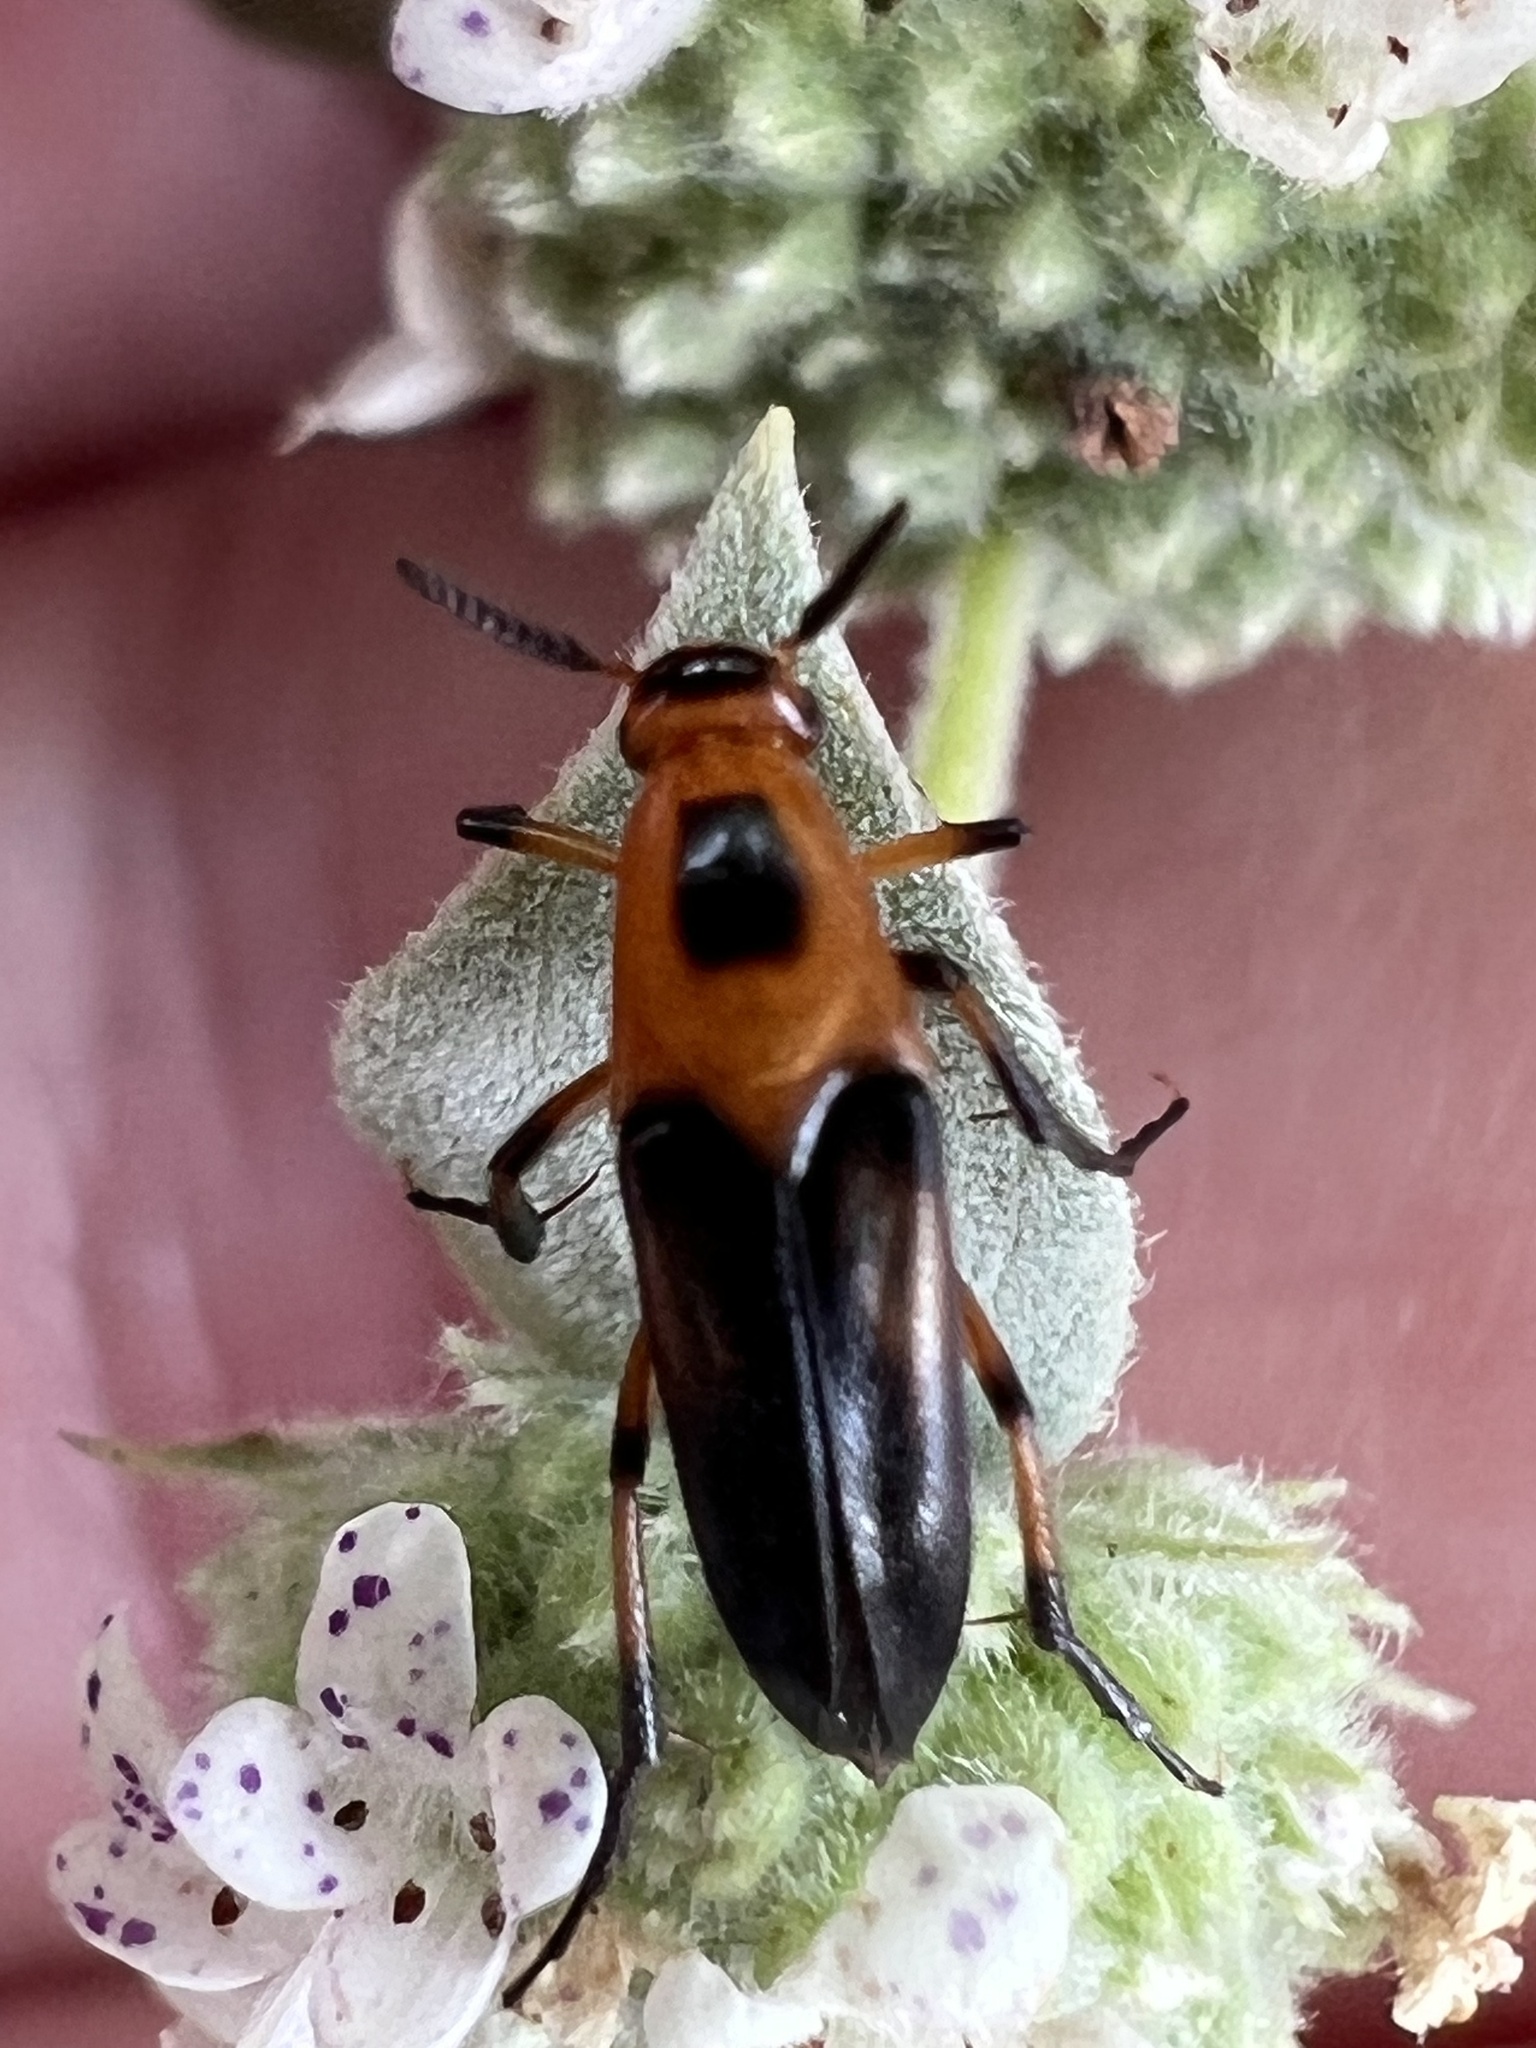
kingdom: Animalia
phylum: Arthropoda
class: Insecta
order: Coleoptera
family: Ripiphoridae
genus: Macrosiagon
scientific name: Macrosiagon limbatum
